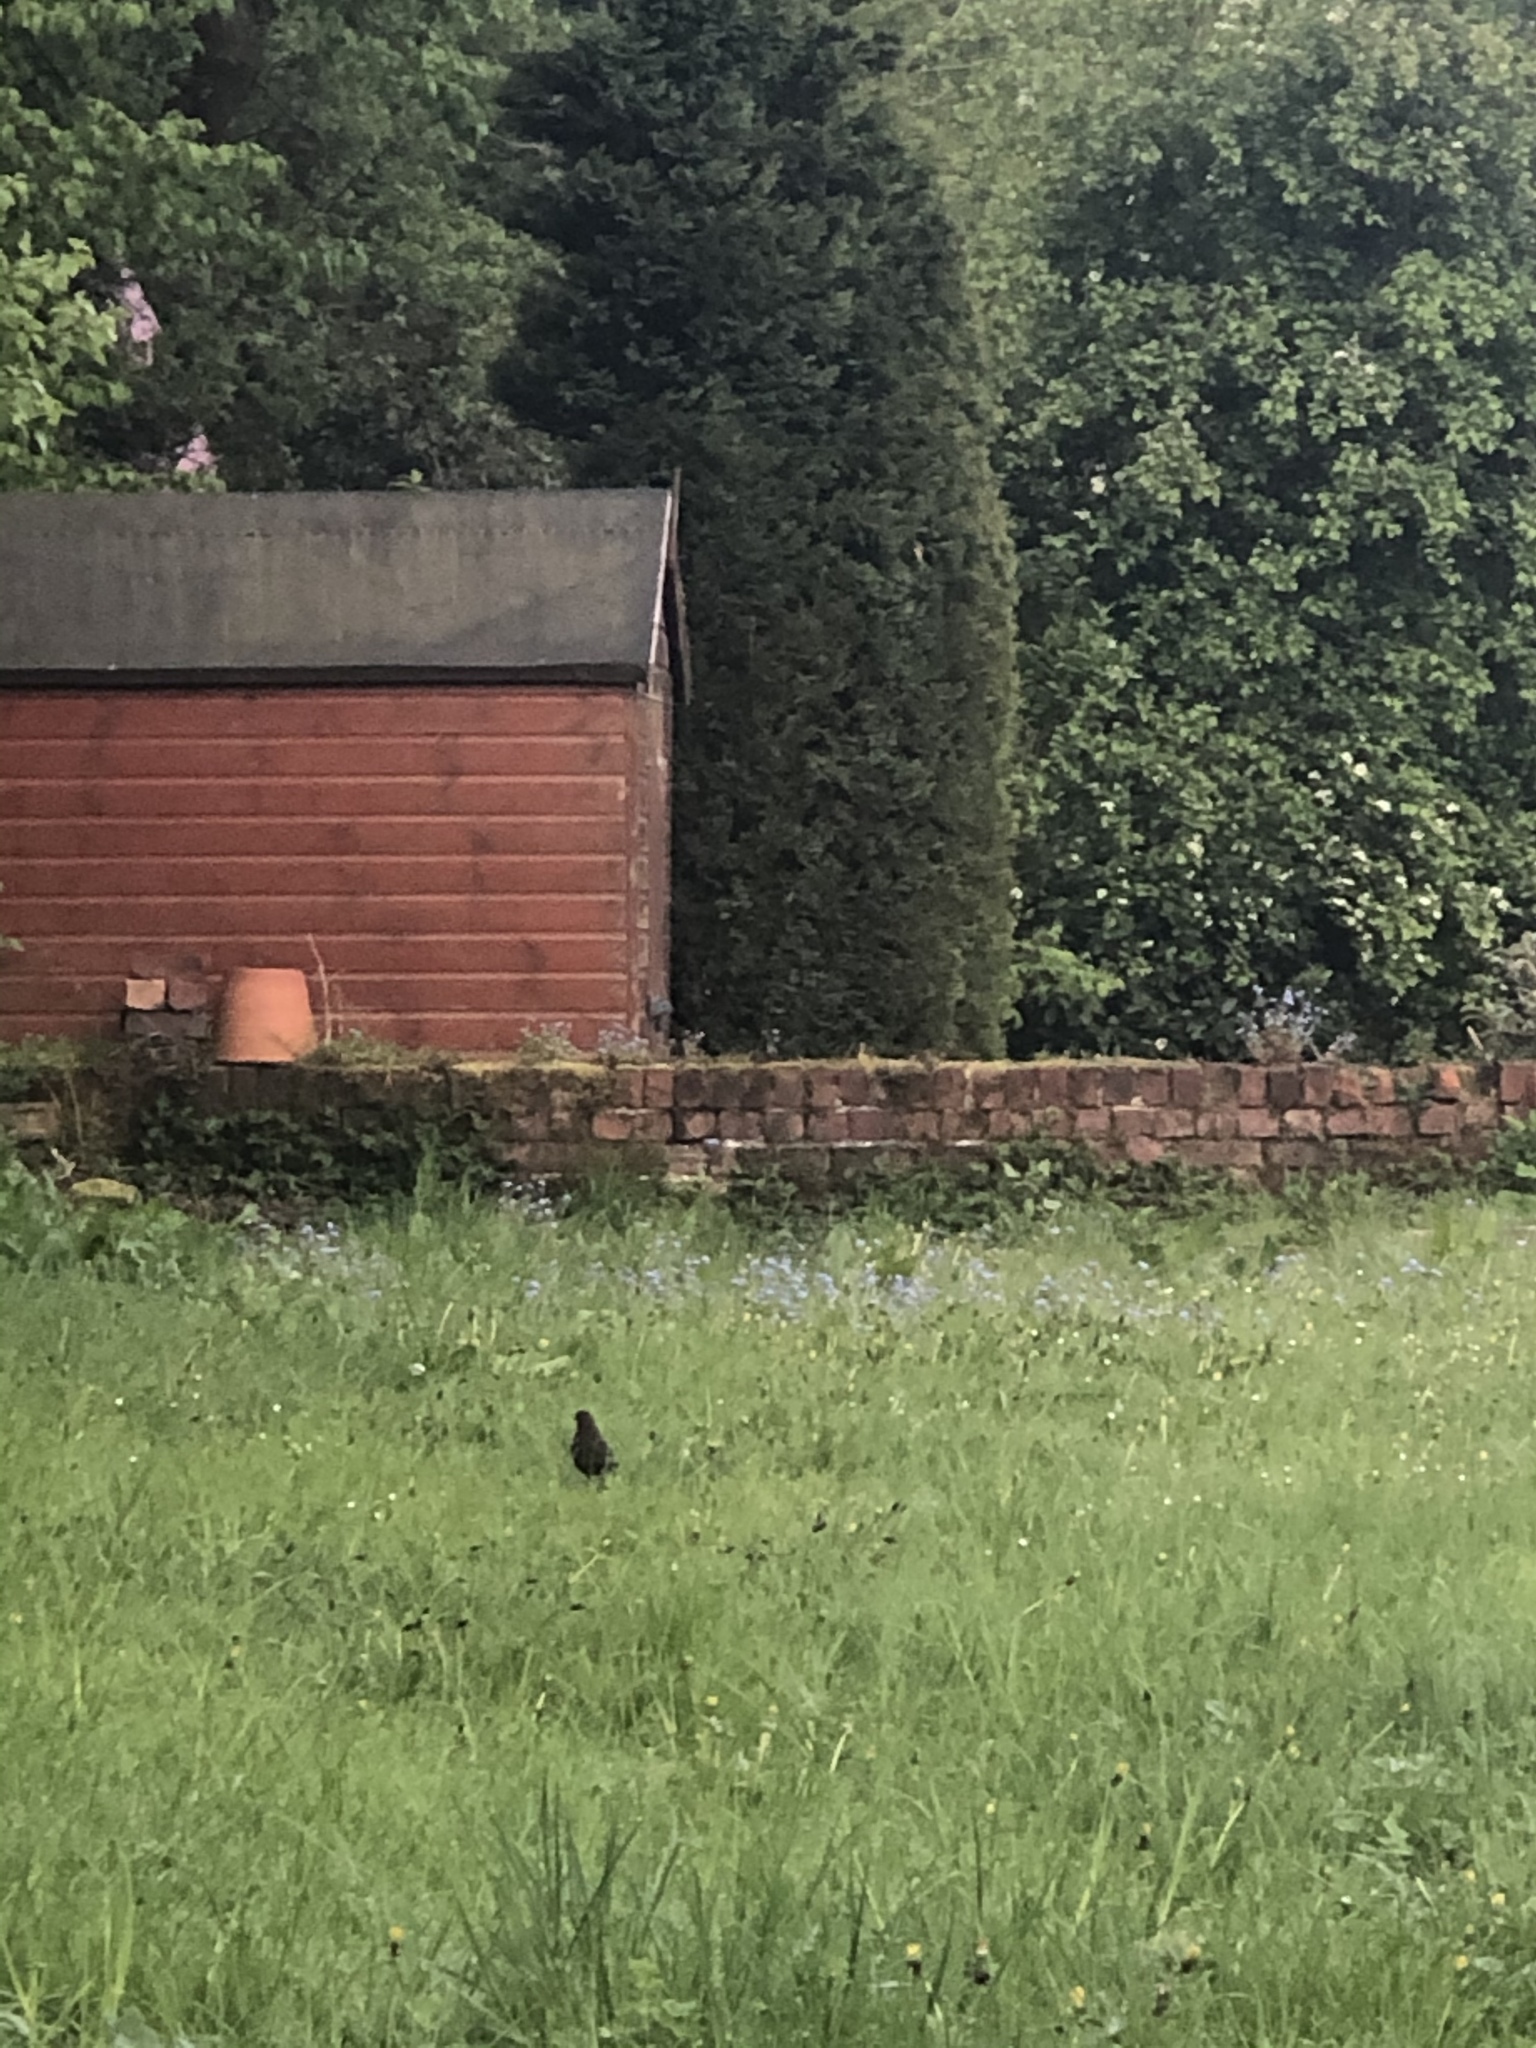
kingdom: Animalia
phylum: Chordata
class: Aves
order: Passeriformes
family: Turdidae
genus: Turdus
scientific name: Turdus merula
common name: Common blackbird
